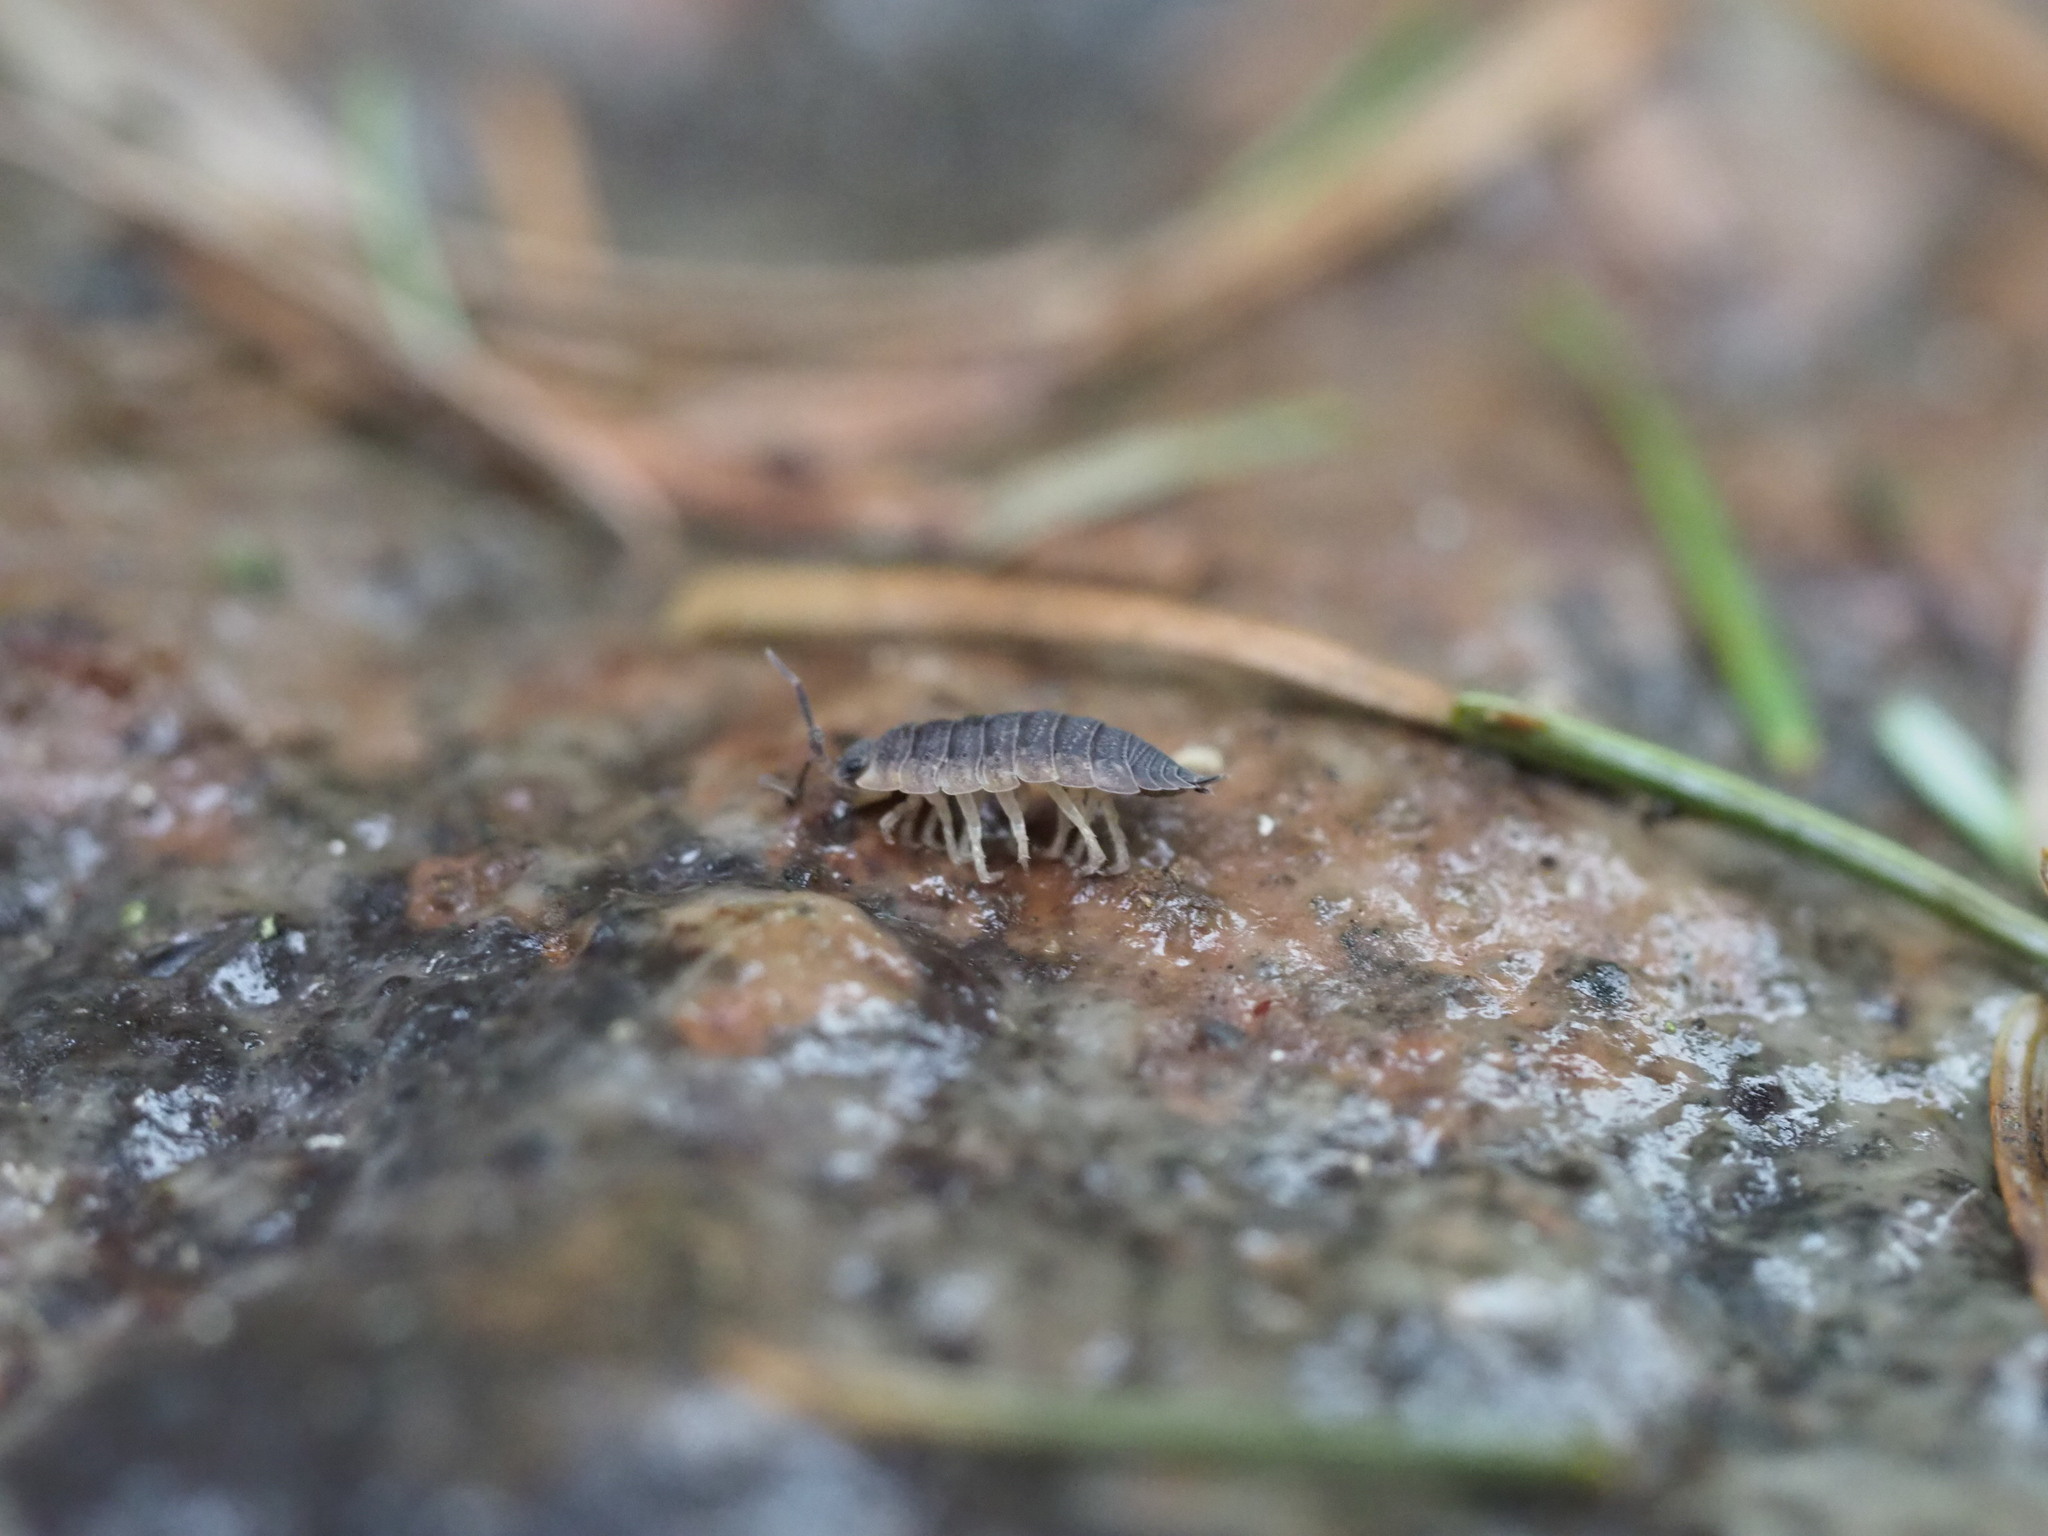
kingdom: Animalia
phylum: Arthropoda
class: Malacostraca
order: Isopoda
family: Porcellionidae
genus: Porcellio
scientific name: Porcellio scaber
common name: Common rough woodlouse
